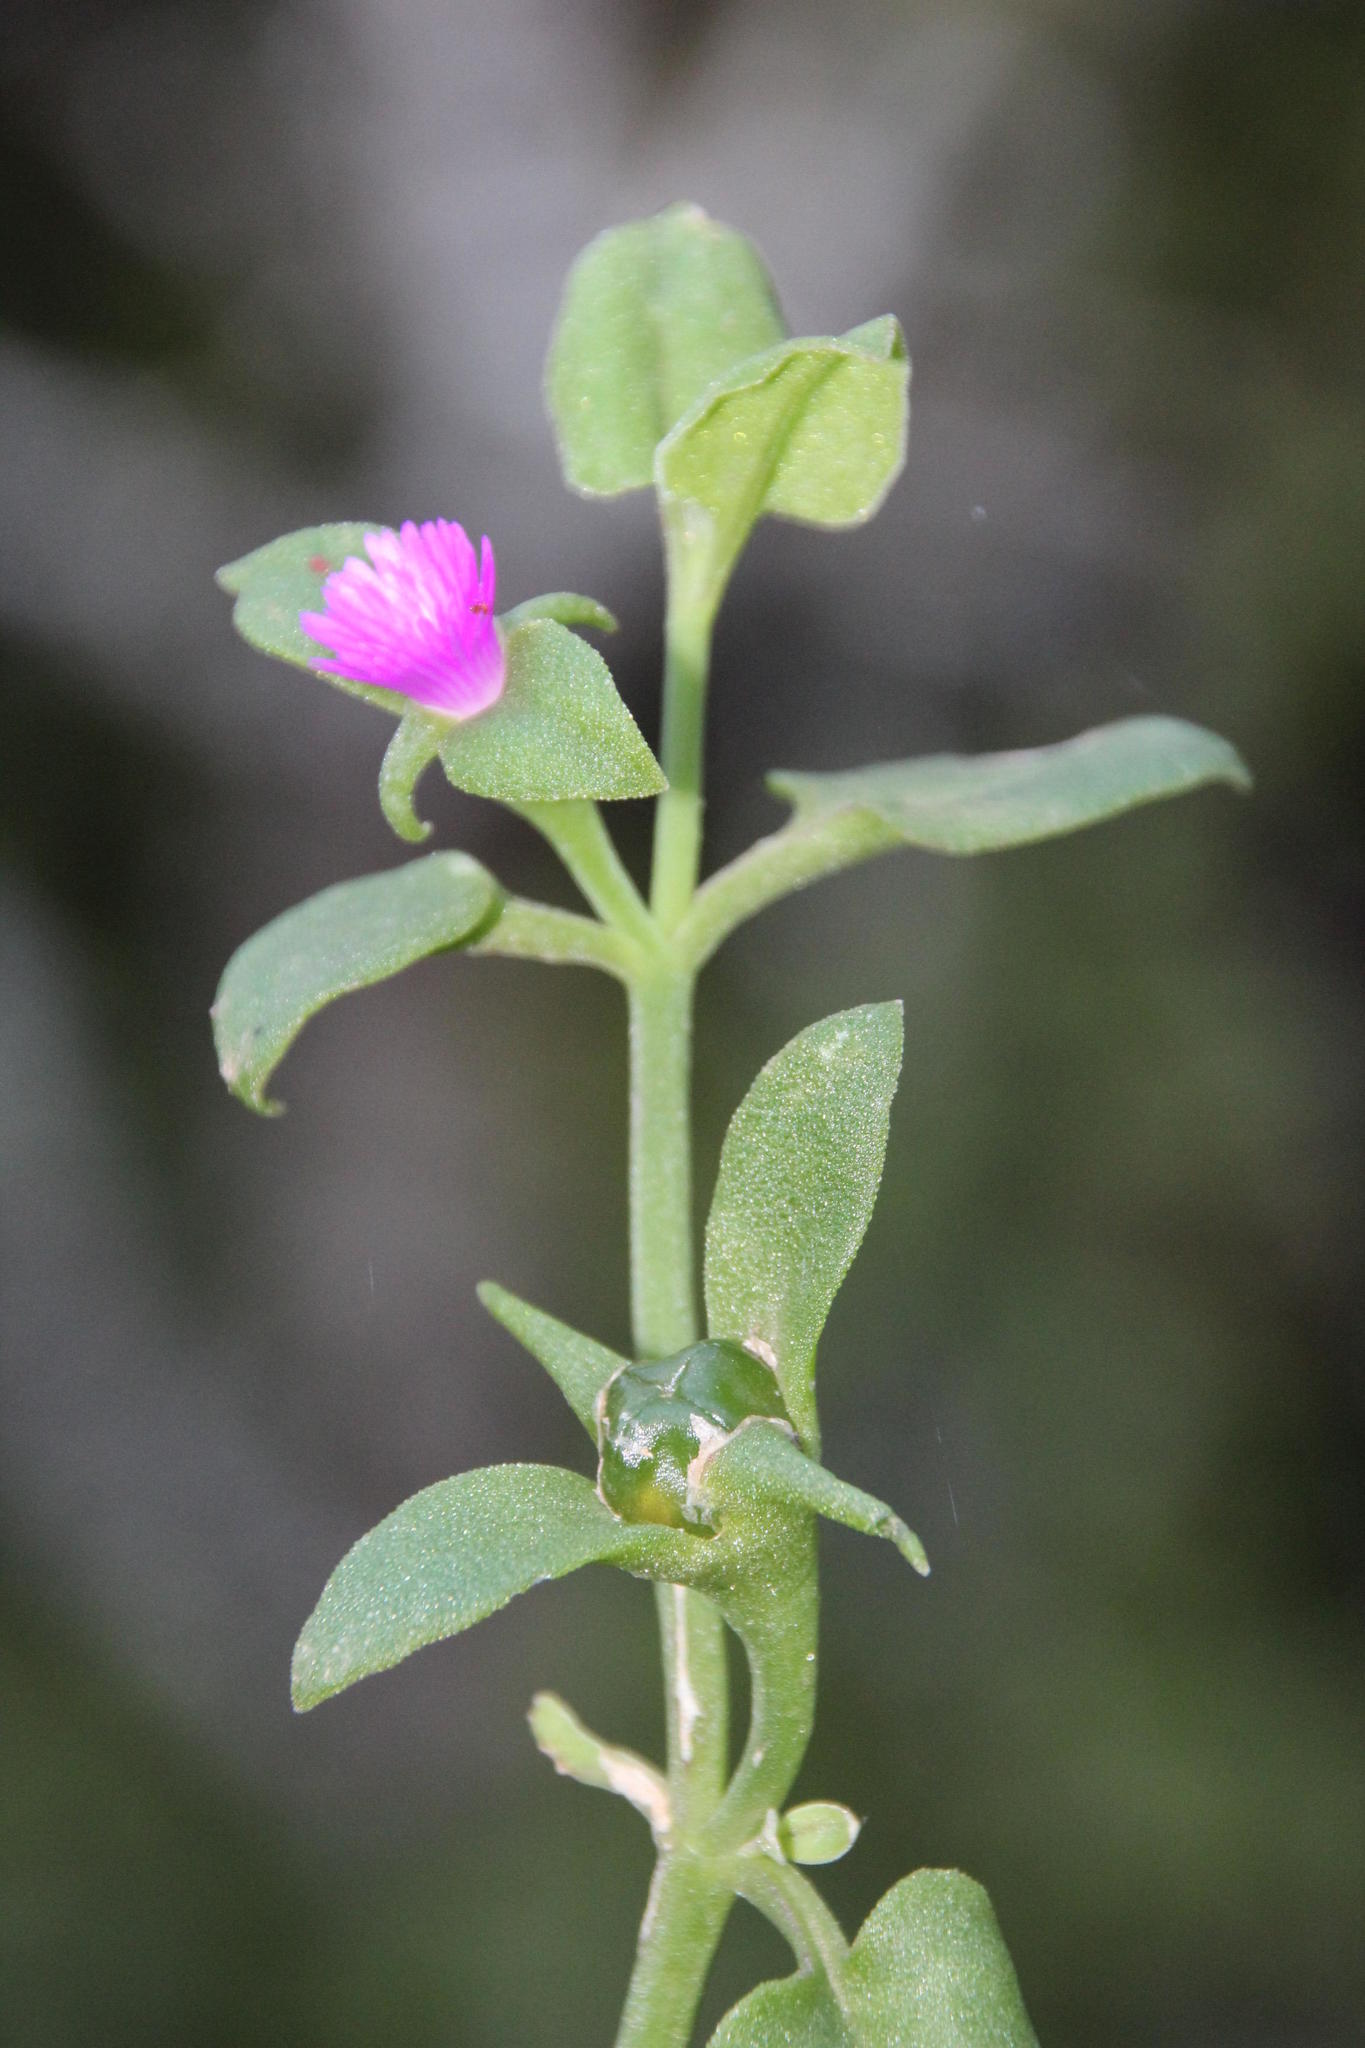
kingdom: Plantae
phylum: Tracheophyta
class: Magnoliopsida
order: Caryophyllales
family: Aizoaceae
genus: Mesembryanthemum
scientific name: Mesembryanthemum cordifolium
